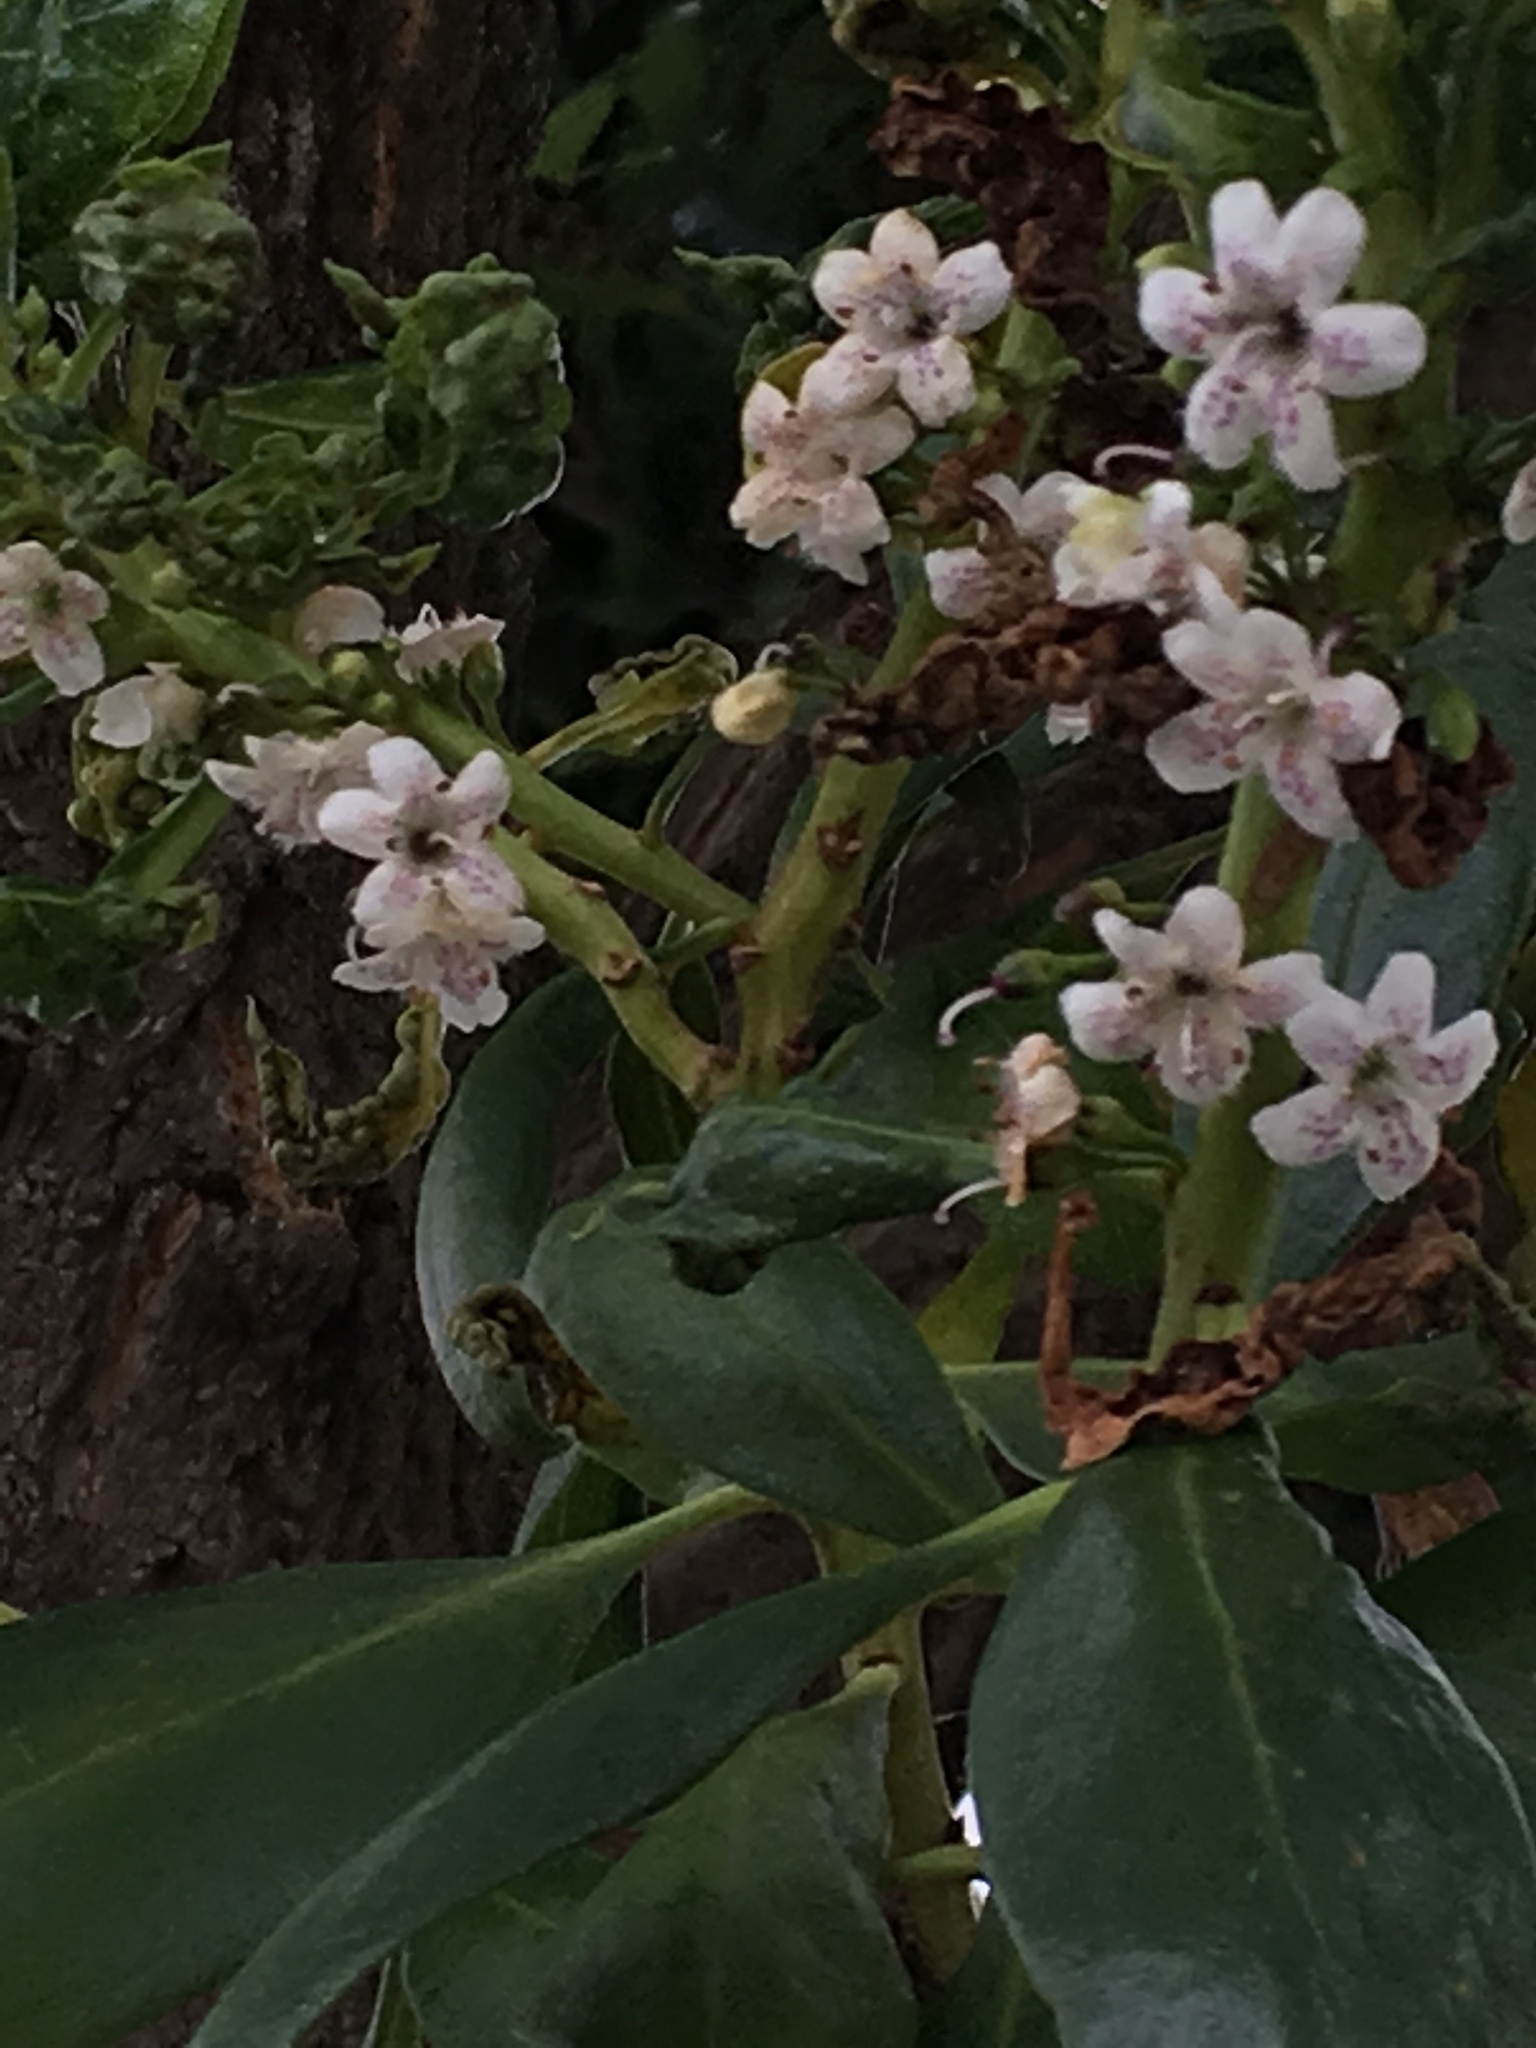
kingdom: Plantae
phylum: Tracheophyta
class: Magnoliopsida
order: Lamiales
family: Scrophulariaceae
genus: Myoporum
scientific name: Myoporum laetum
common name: Ngaio tree
